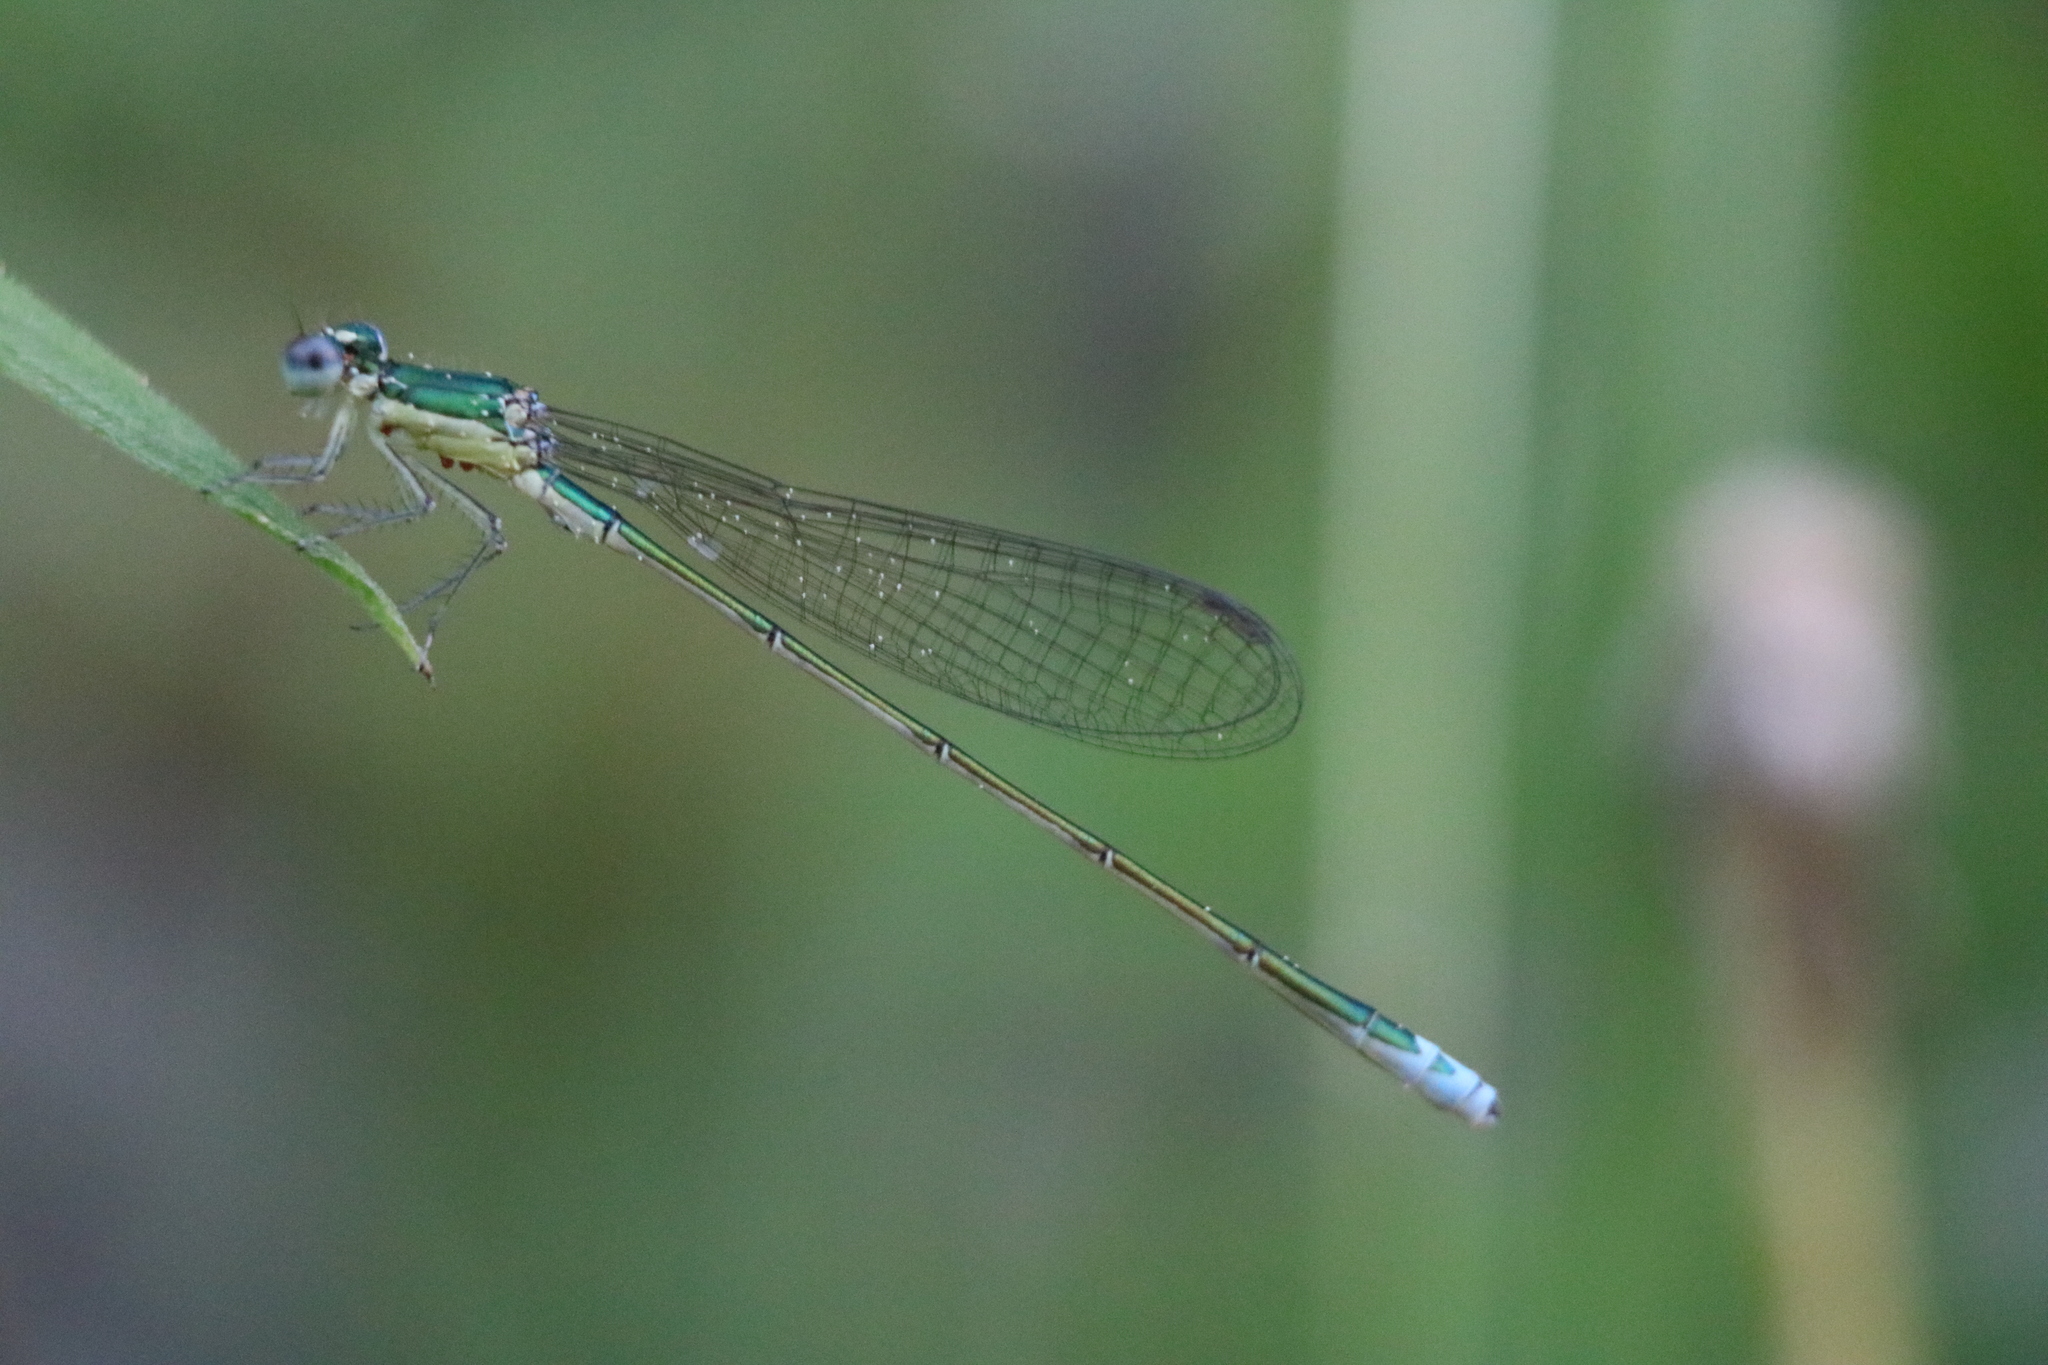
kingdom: Animalia
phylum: Arthropoda
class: Insecta
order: Odonata
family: Coenagrionidae
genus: Nehalennia
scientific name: Nehalennia irene
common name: Sedge sprite
